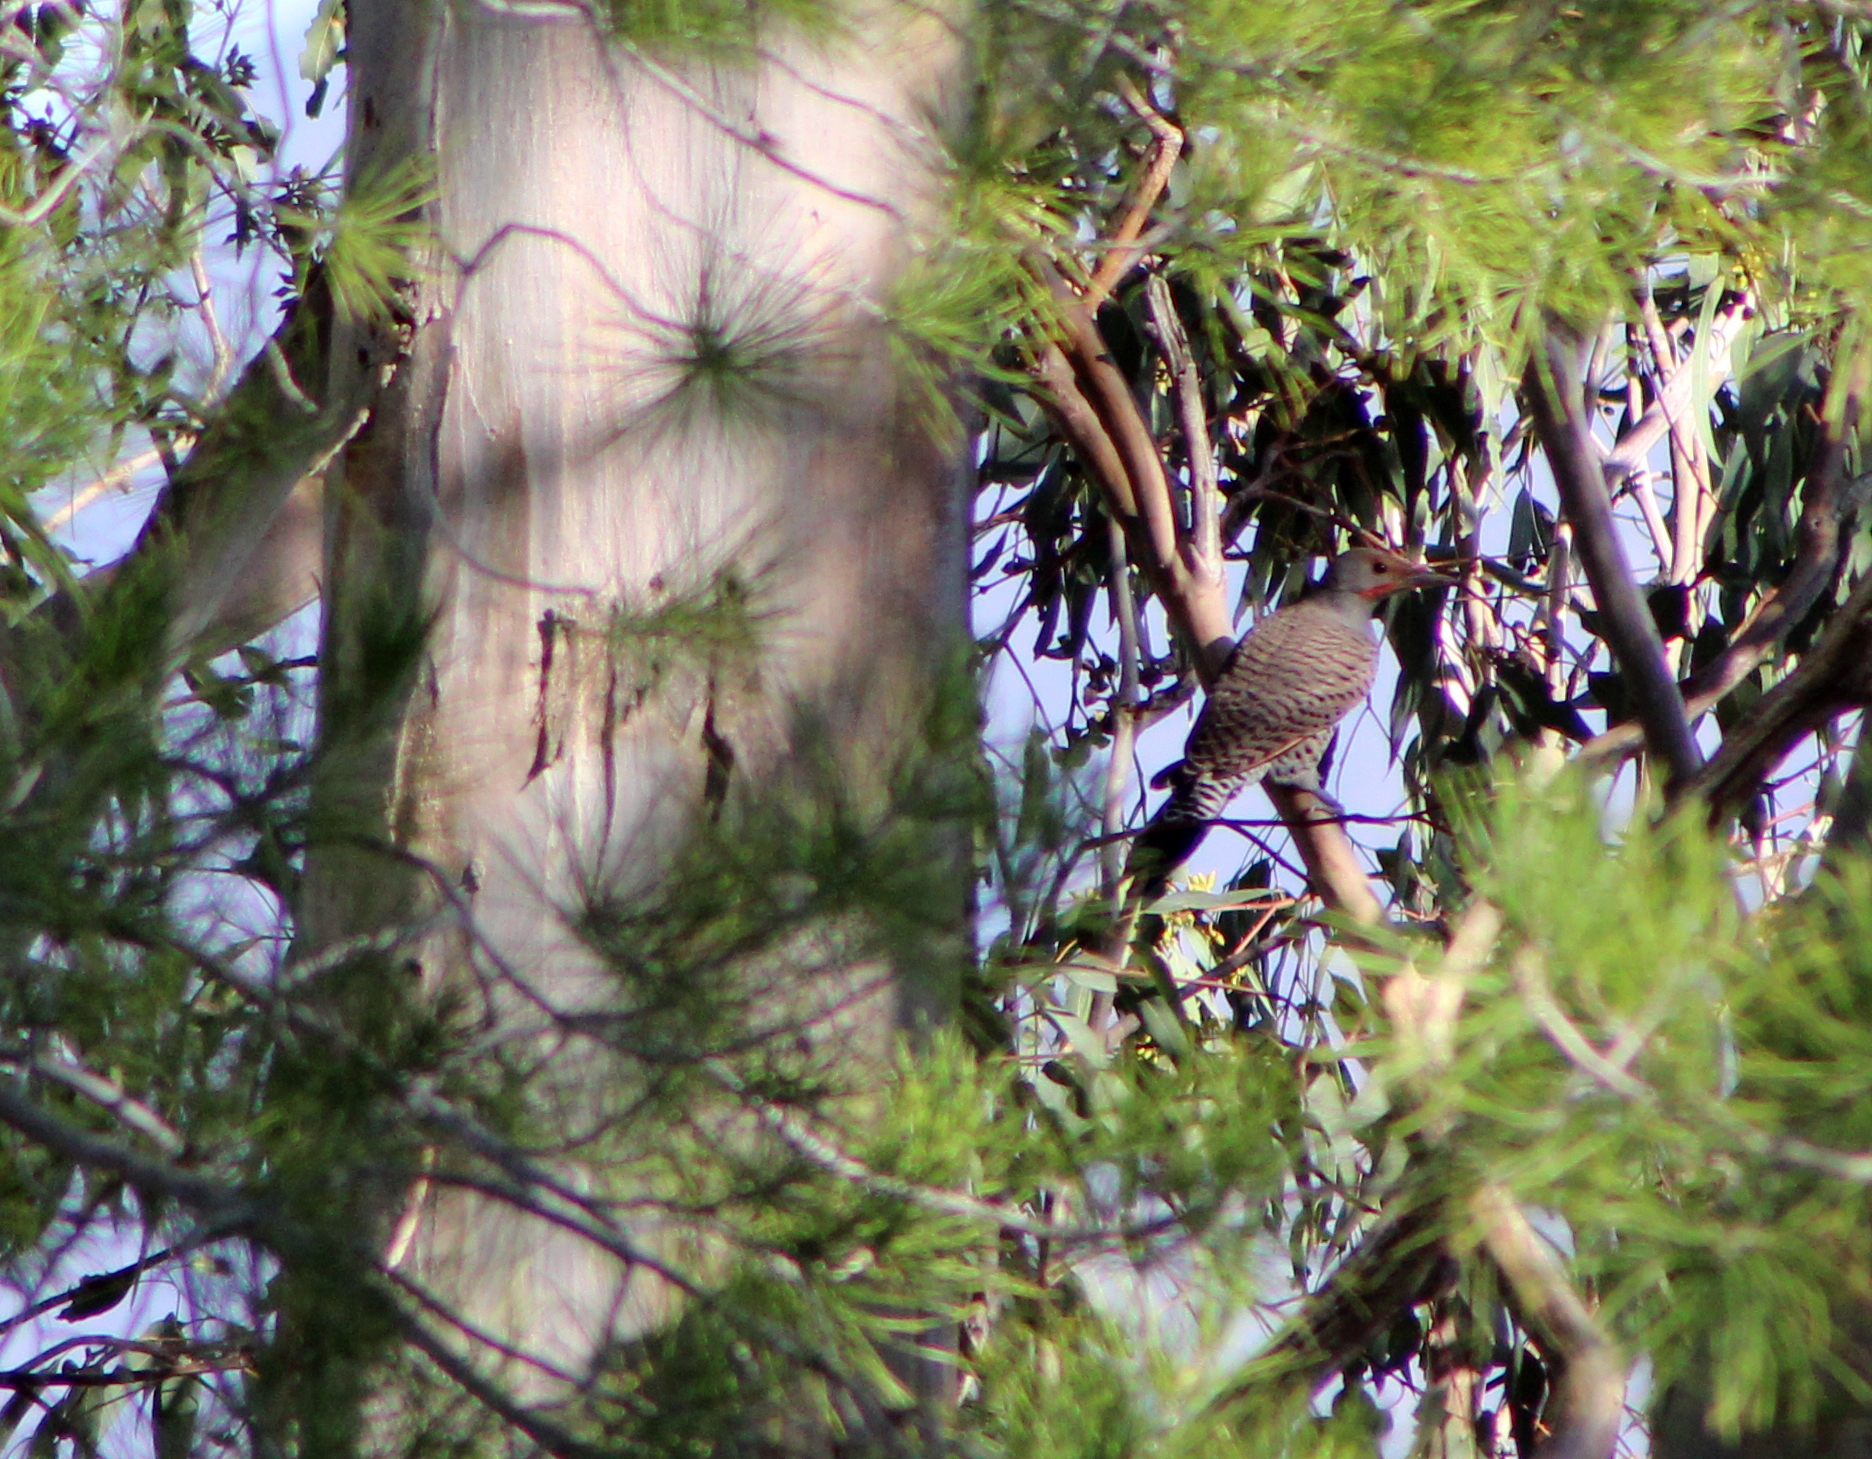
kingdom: Animalia
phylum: Chordata
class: Aves
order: Piciformes
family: Picidae
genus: Colaptes
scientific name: Colaptes auratus
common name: Northern flicker
